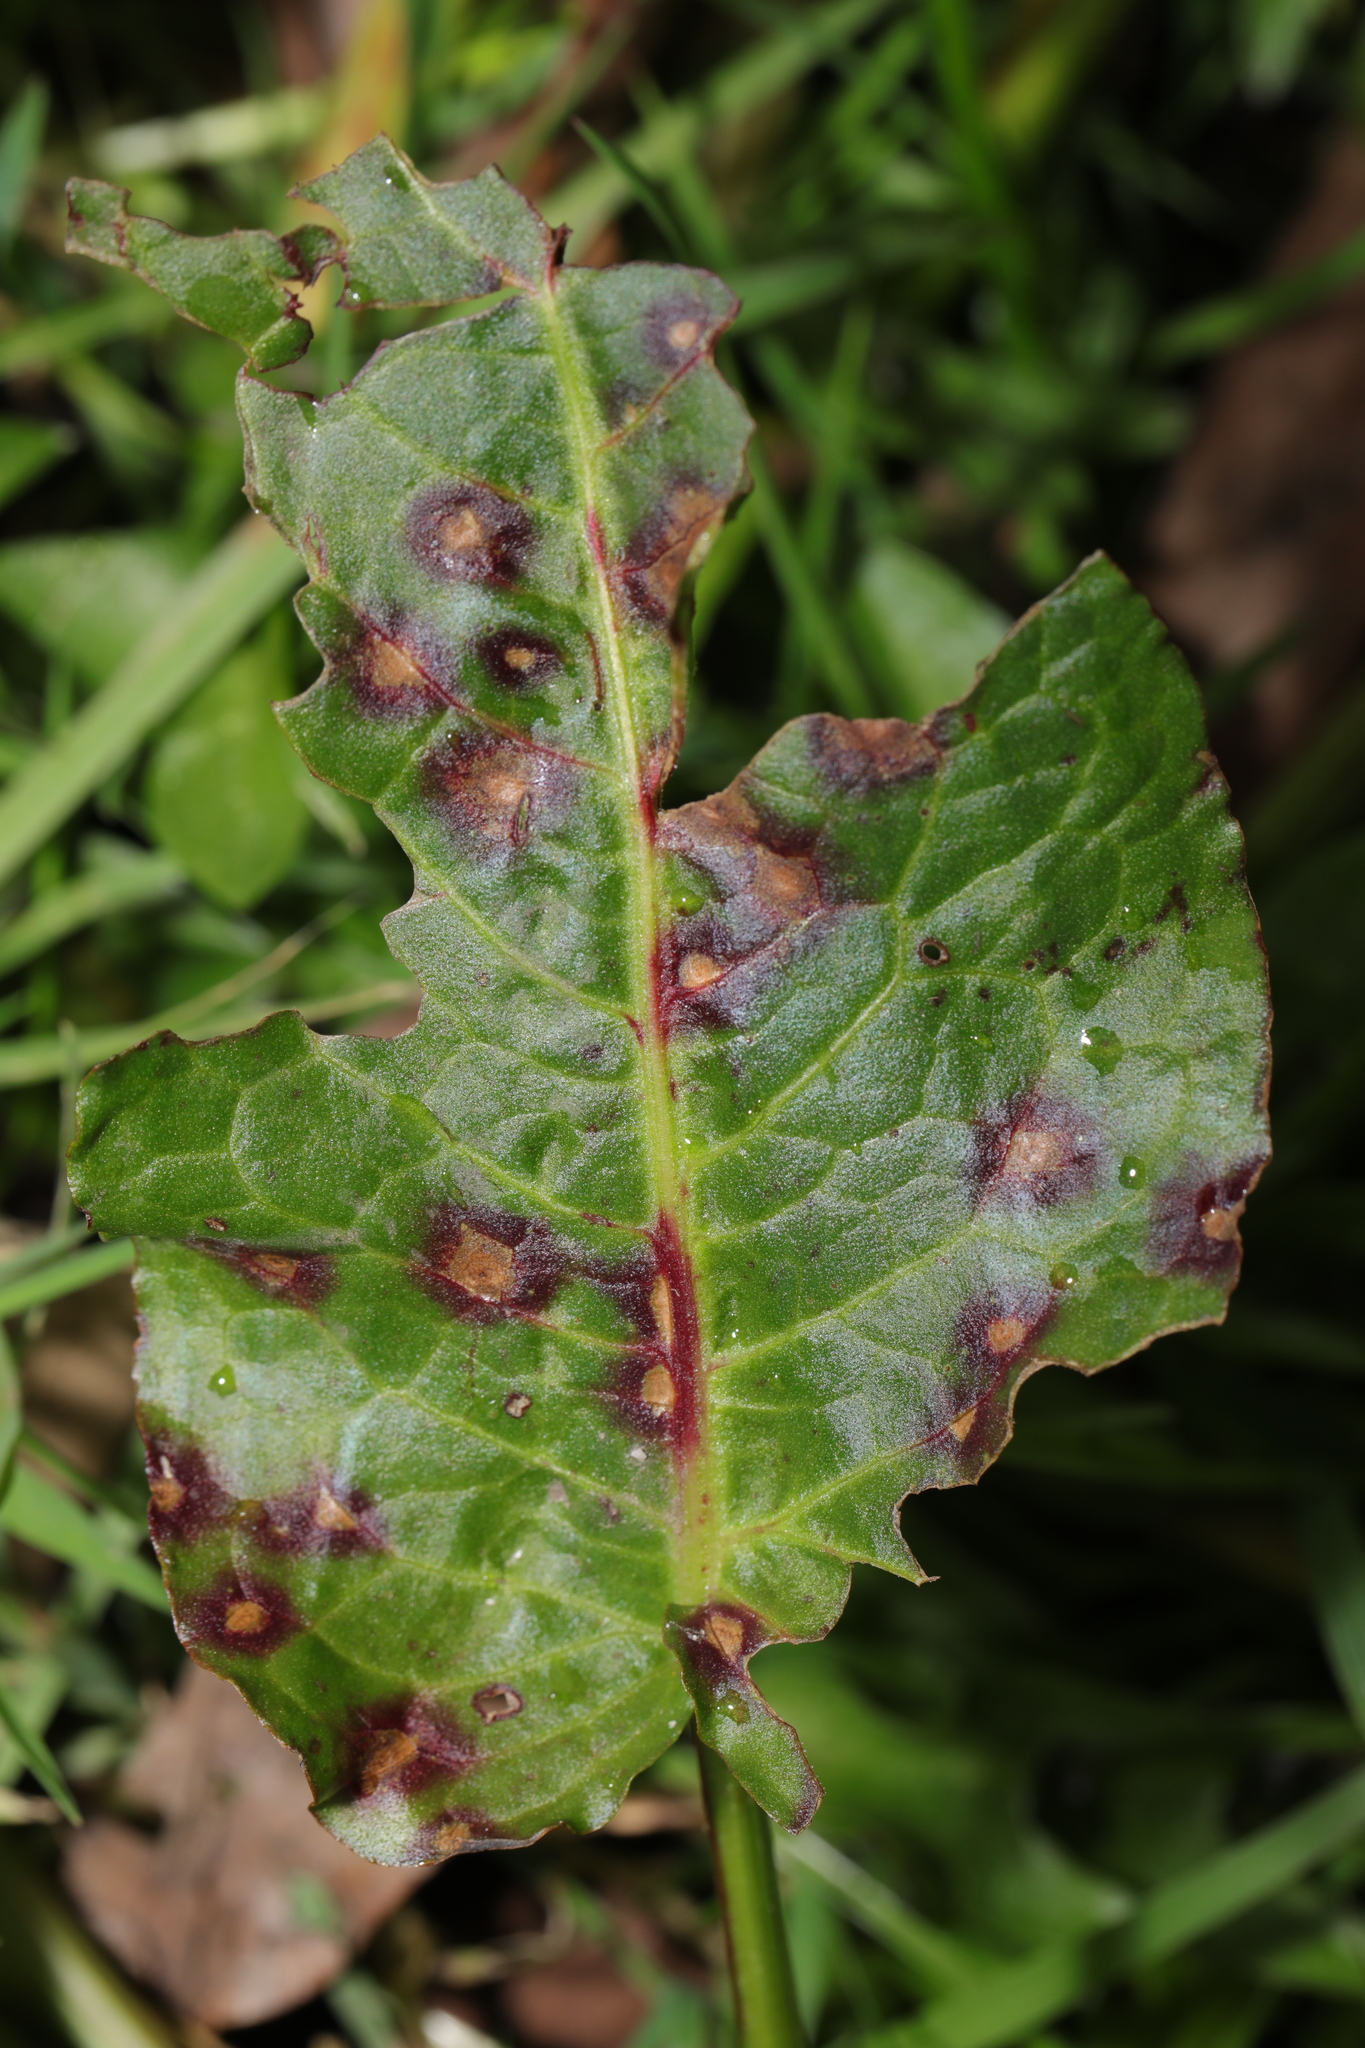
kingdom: Fungi
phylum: Ascomycota
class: Dothideomycetes
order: Mycosphaerellales
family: Mycosphaerellaceae
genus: Ramularia
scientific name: Ramularia rubella
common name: Red dock spot
